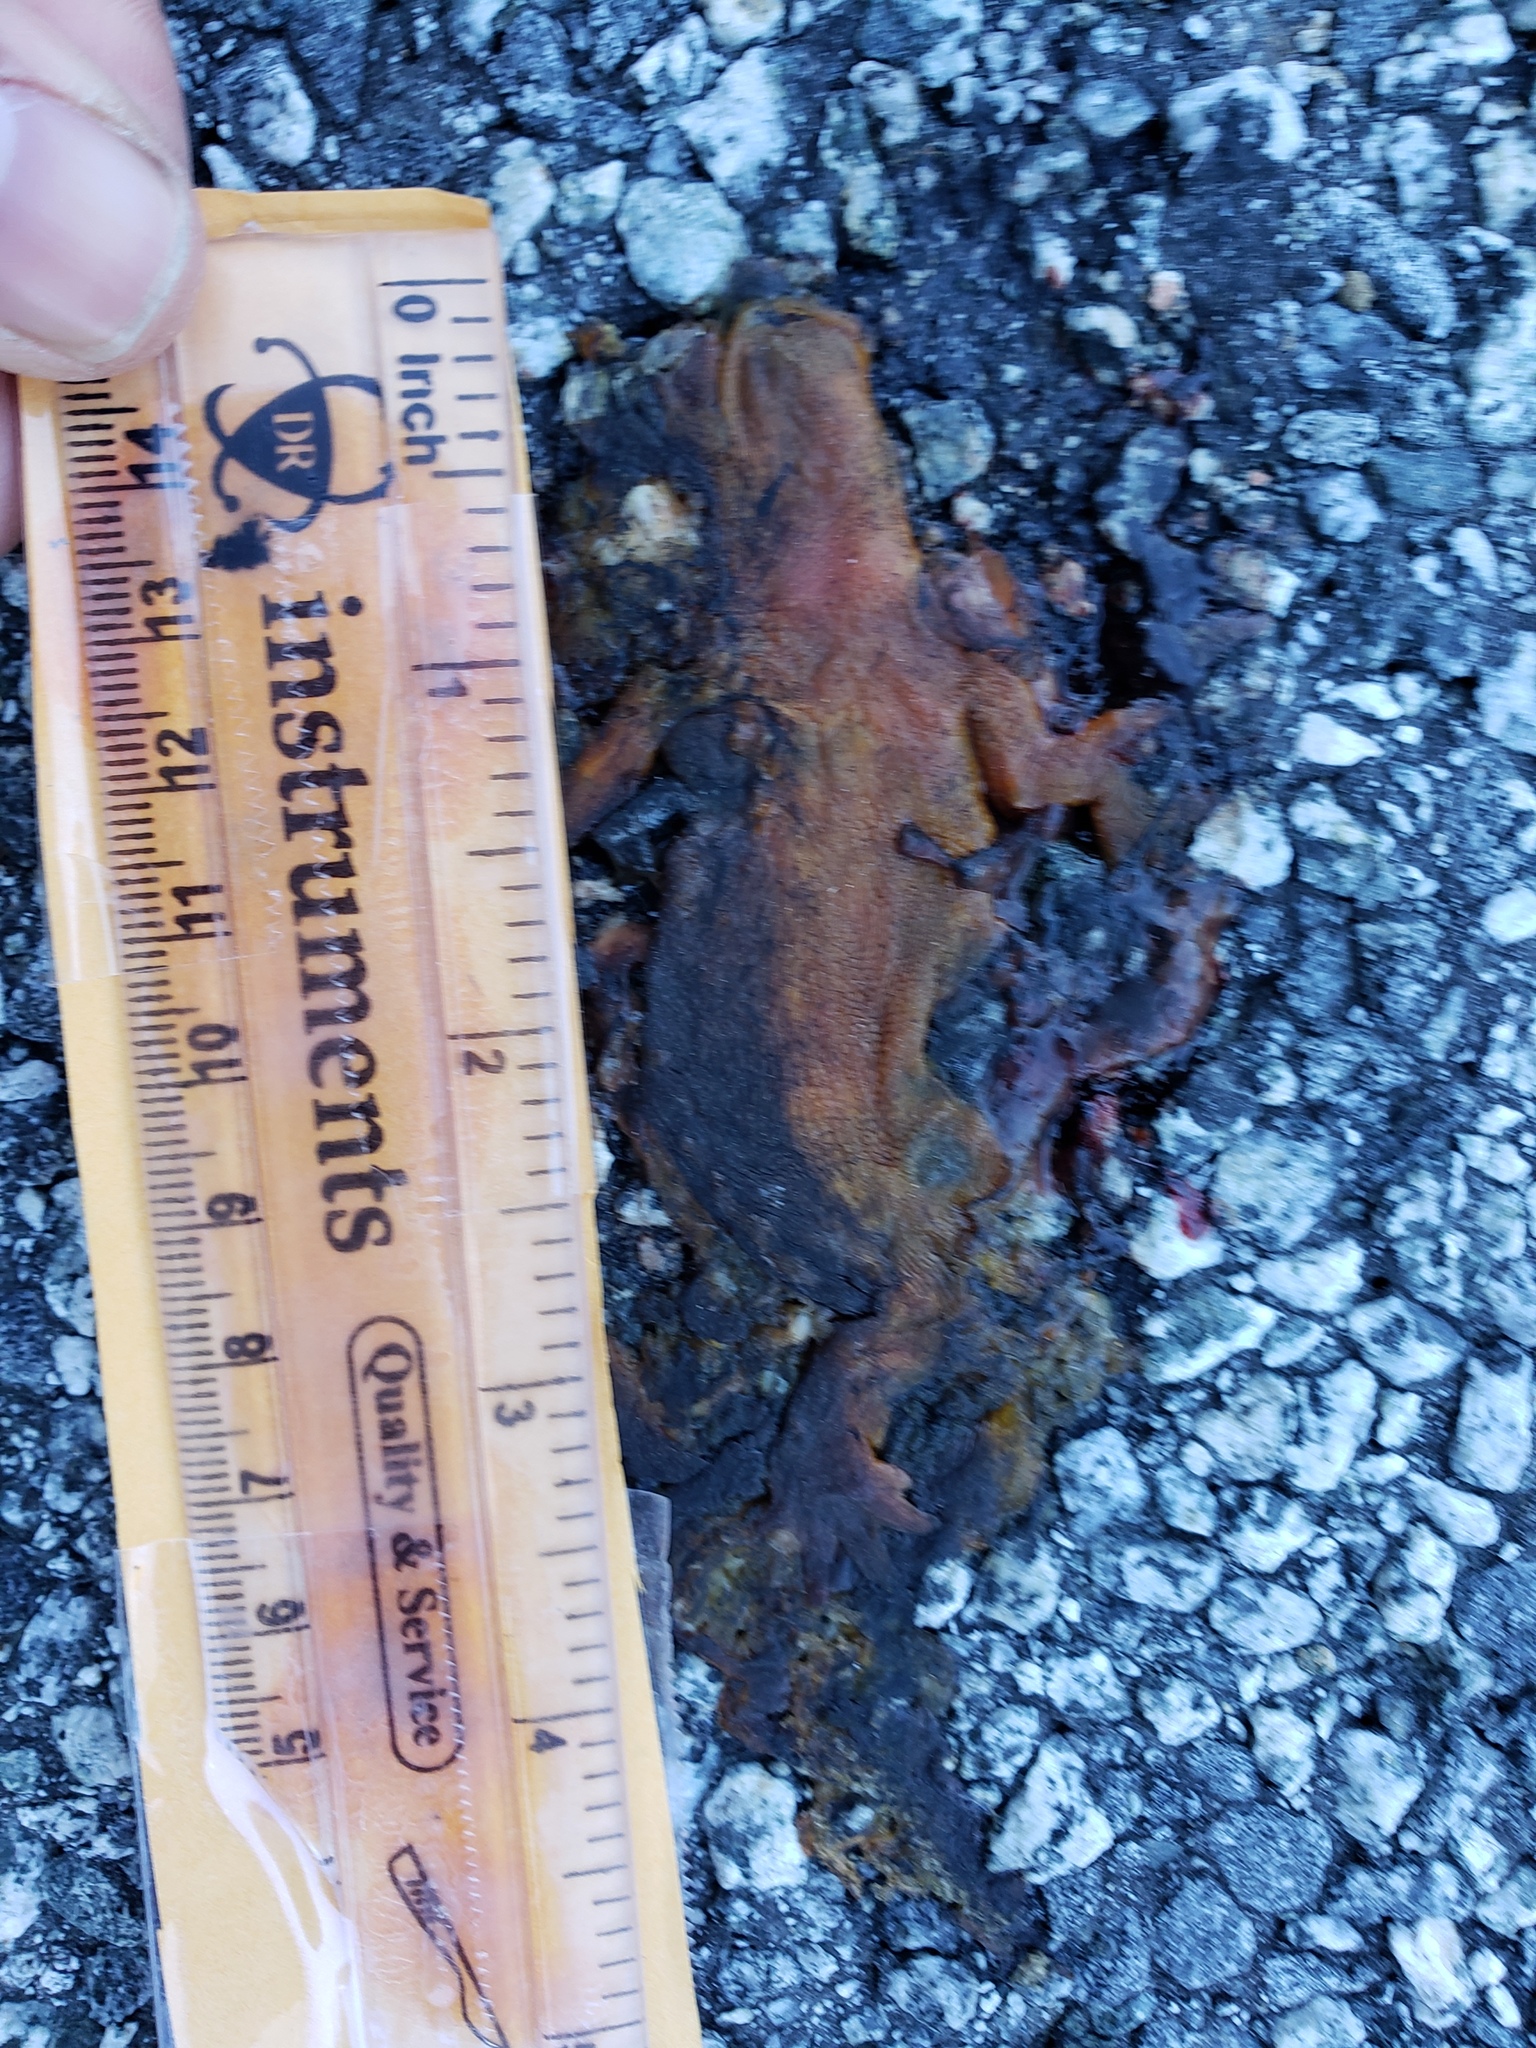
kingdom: Animalia
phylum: Chordata
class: Amphibia
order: Caudata
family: Salamandridae
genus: Taricha
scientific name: Taricha
